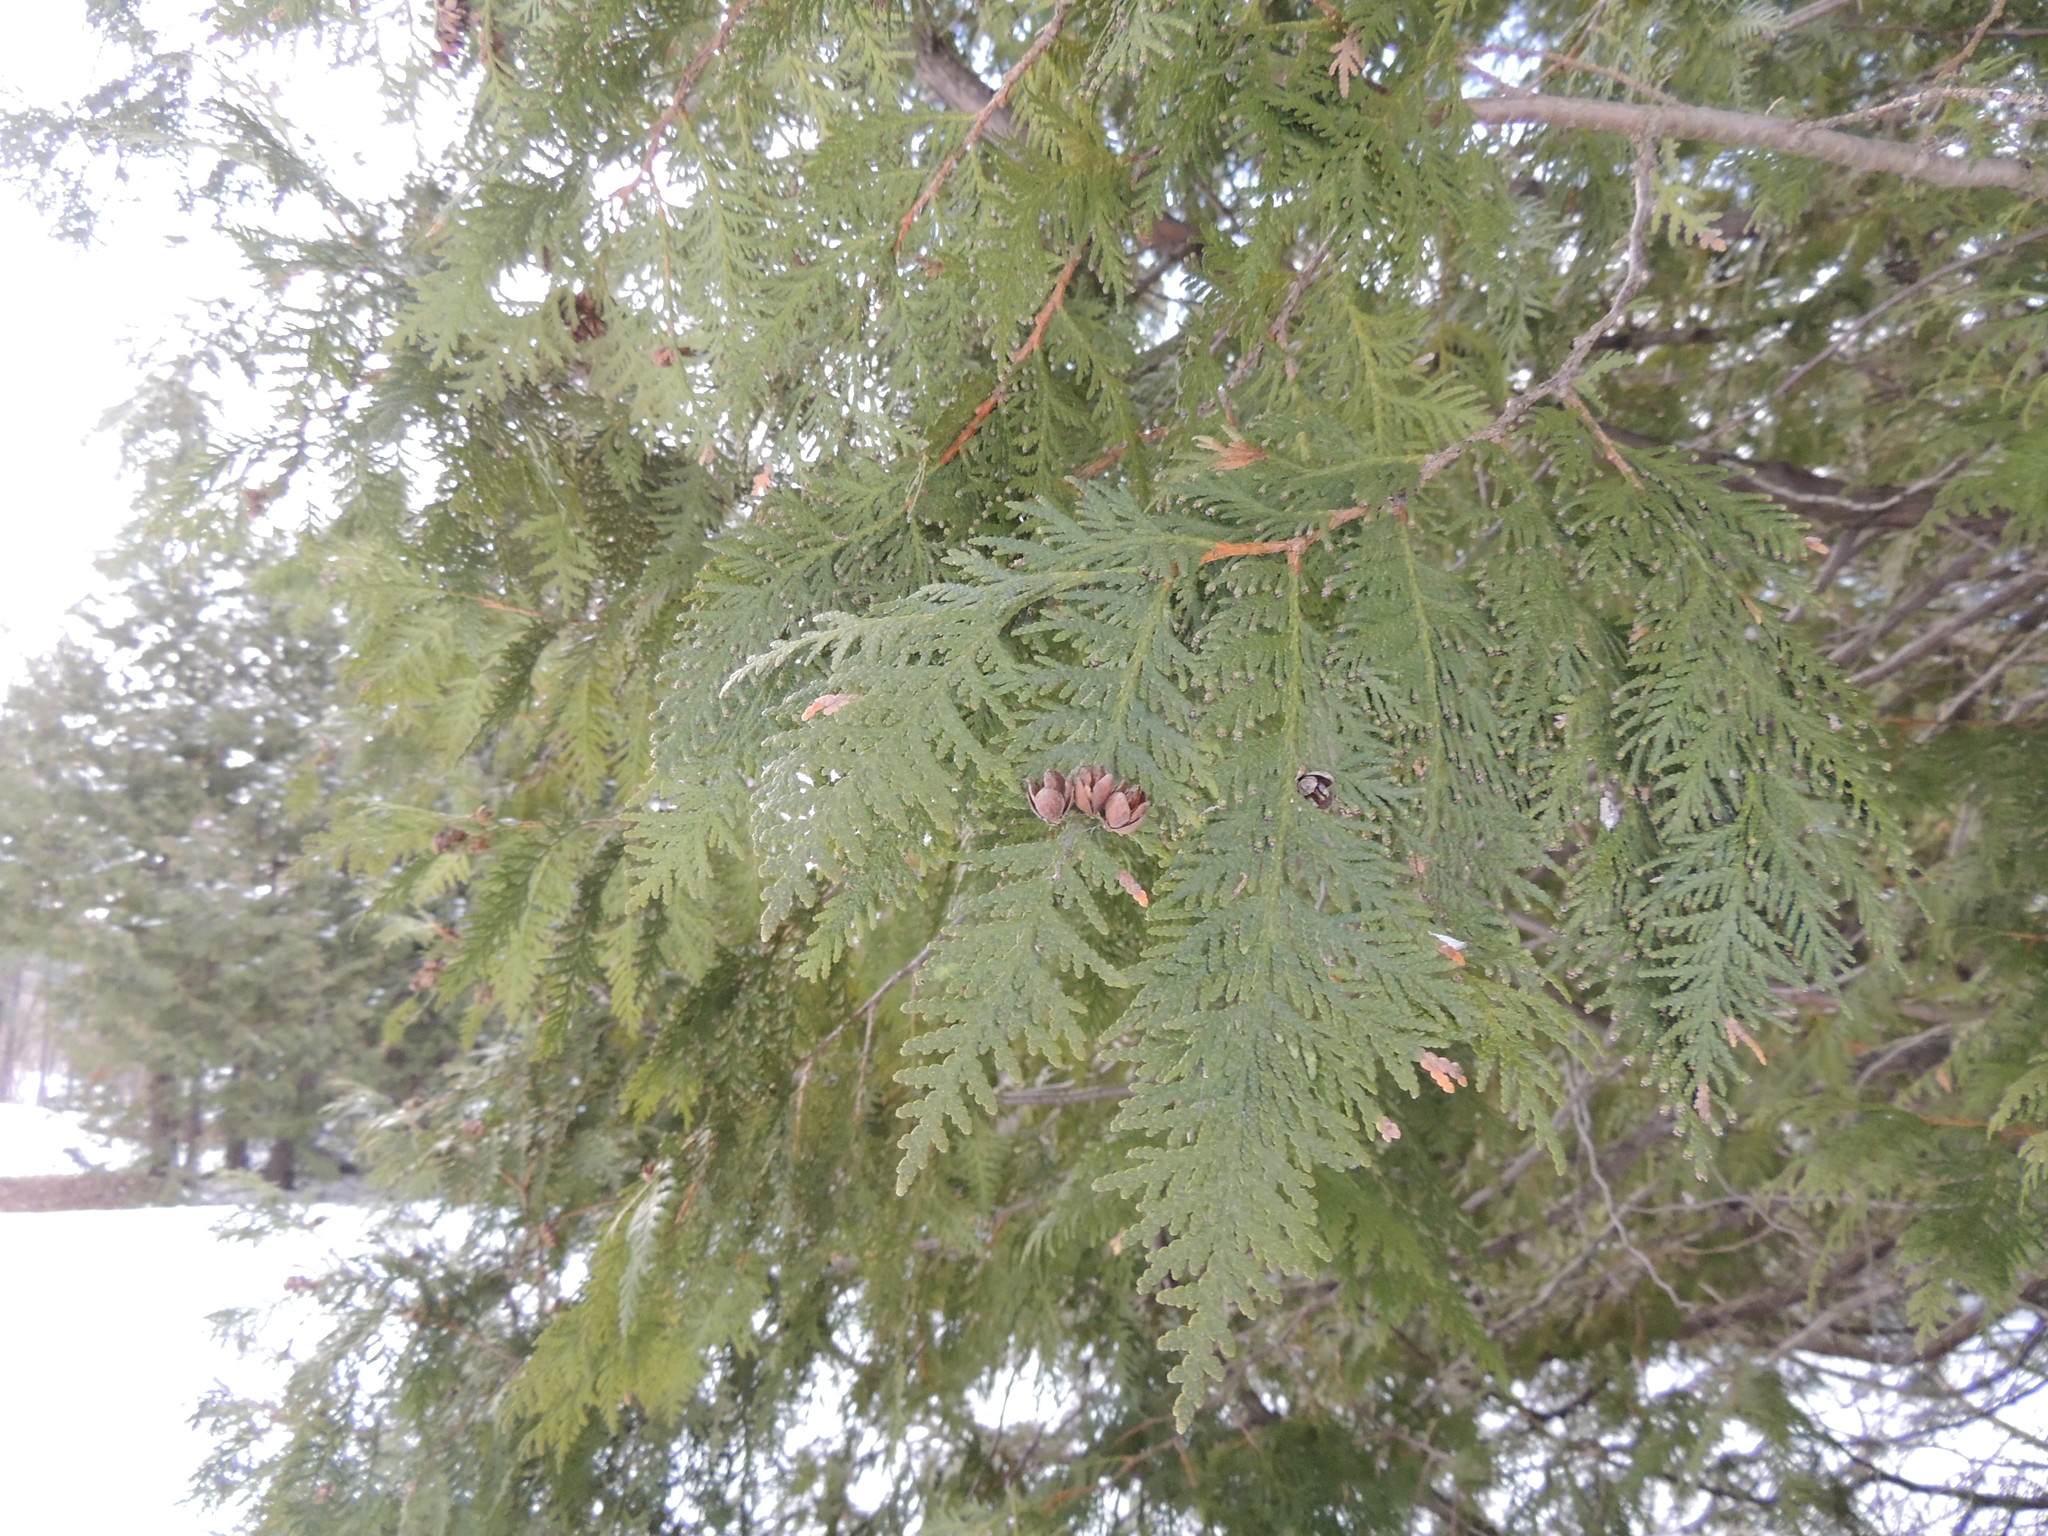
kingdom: Plantae
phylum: Tracheophyta
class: Pinopsida
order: Pinales
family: Cupressaceae
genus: Thuja
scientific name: Thuja occidentalis
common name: Northern white-cedar
